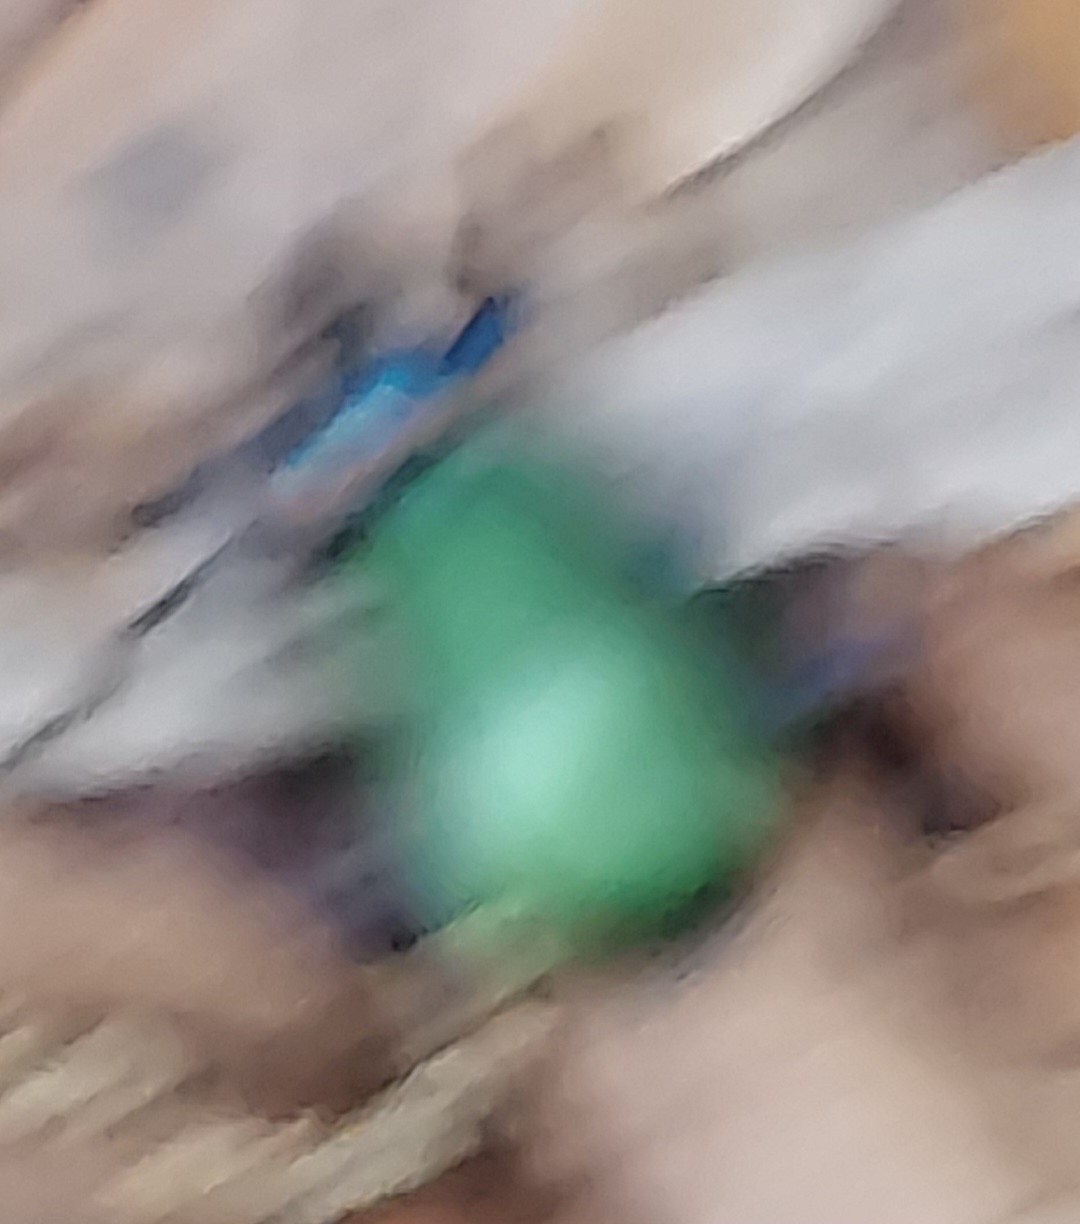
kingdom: Animalia
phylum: Arthropoda
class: Insecta
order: Coleoptera
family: Carabidae
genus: Calosoma
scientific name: Calosoma scrutator
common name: Fiery searcher beetle
